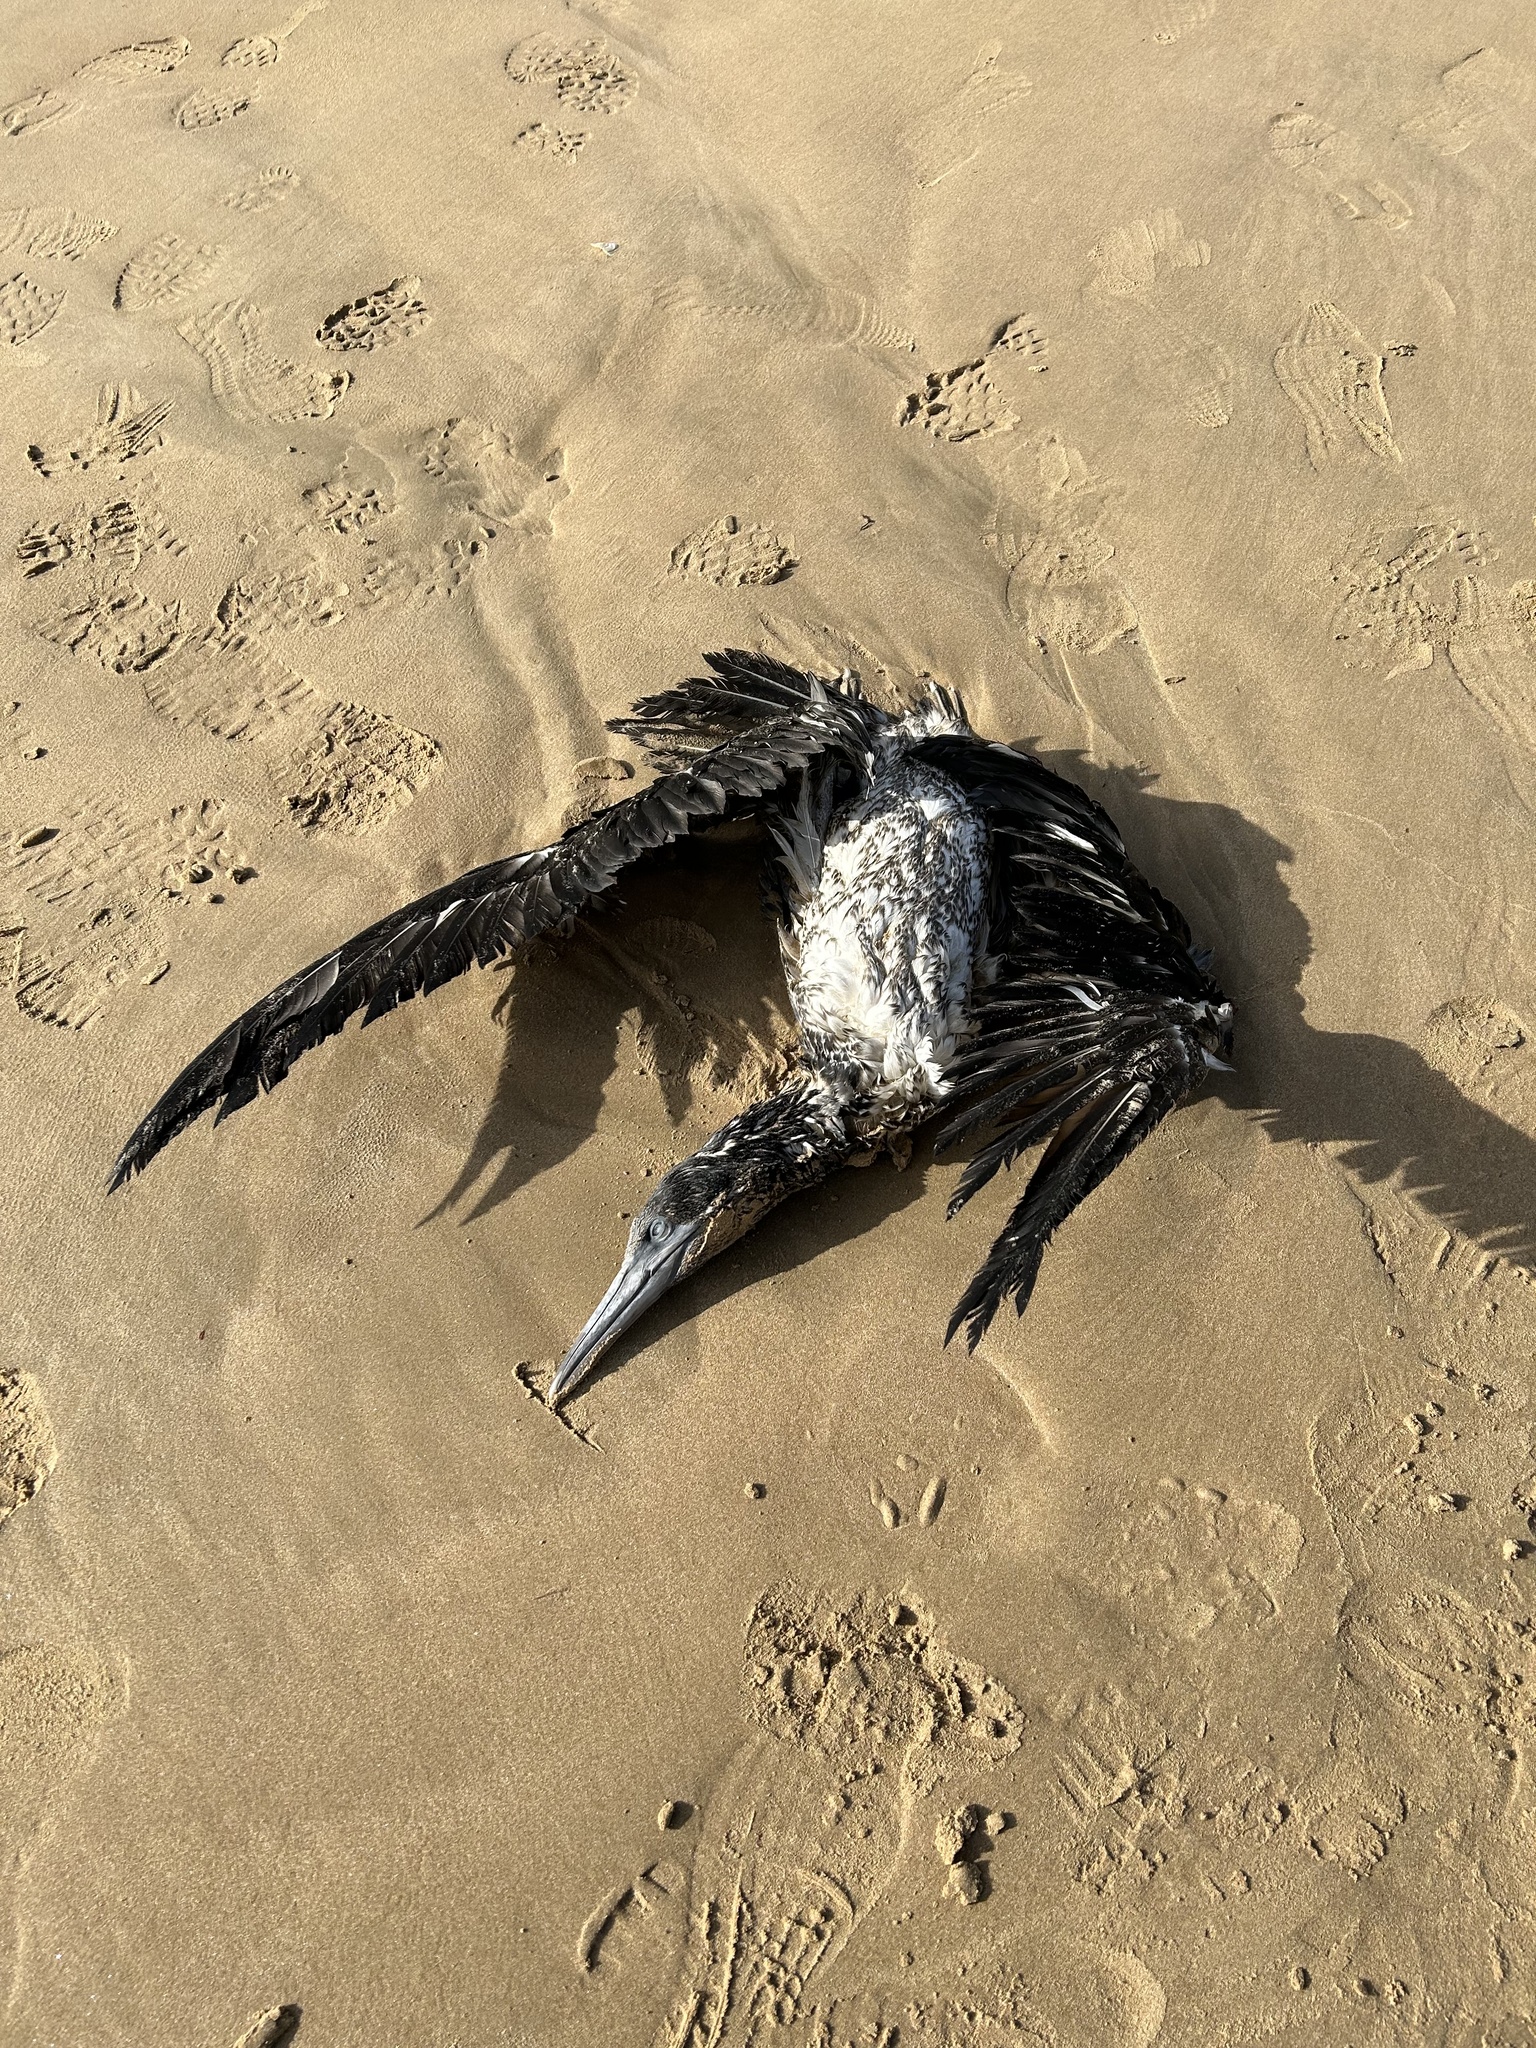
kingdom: Animalia
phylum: Chordata
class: Aves
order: Suliformes
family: Sulidae
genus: Morus
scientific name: Morus bassanus
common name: Northern gannet
